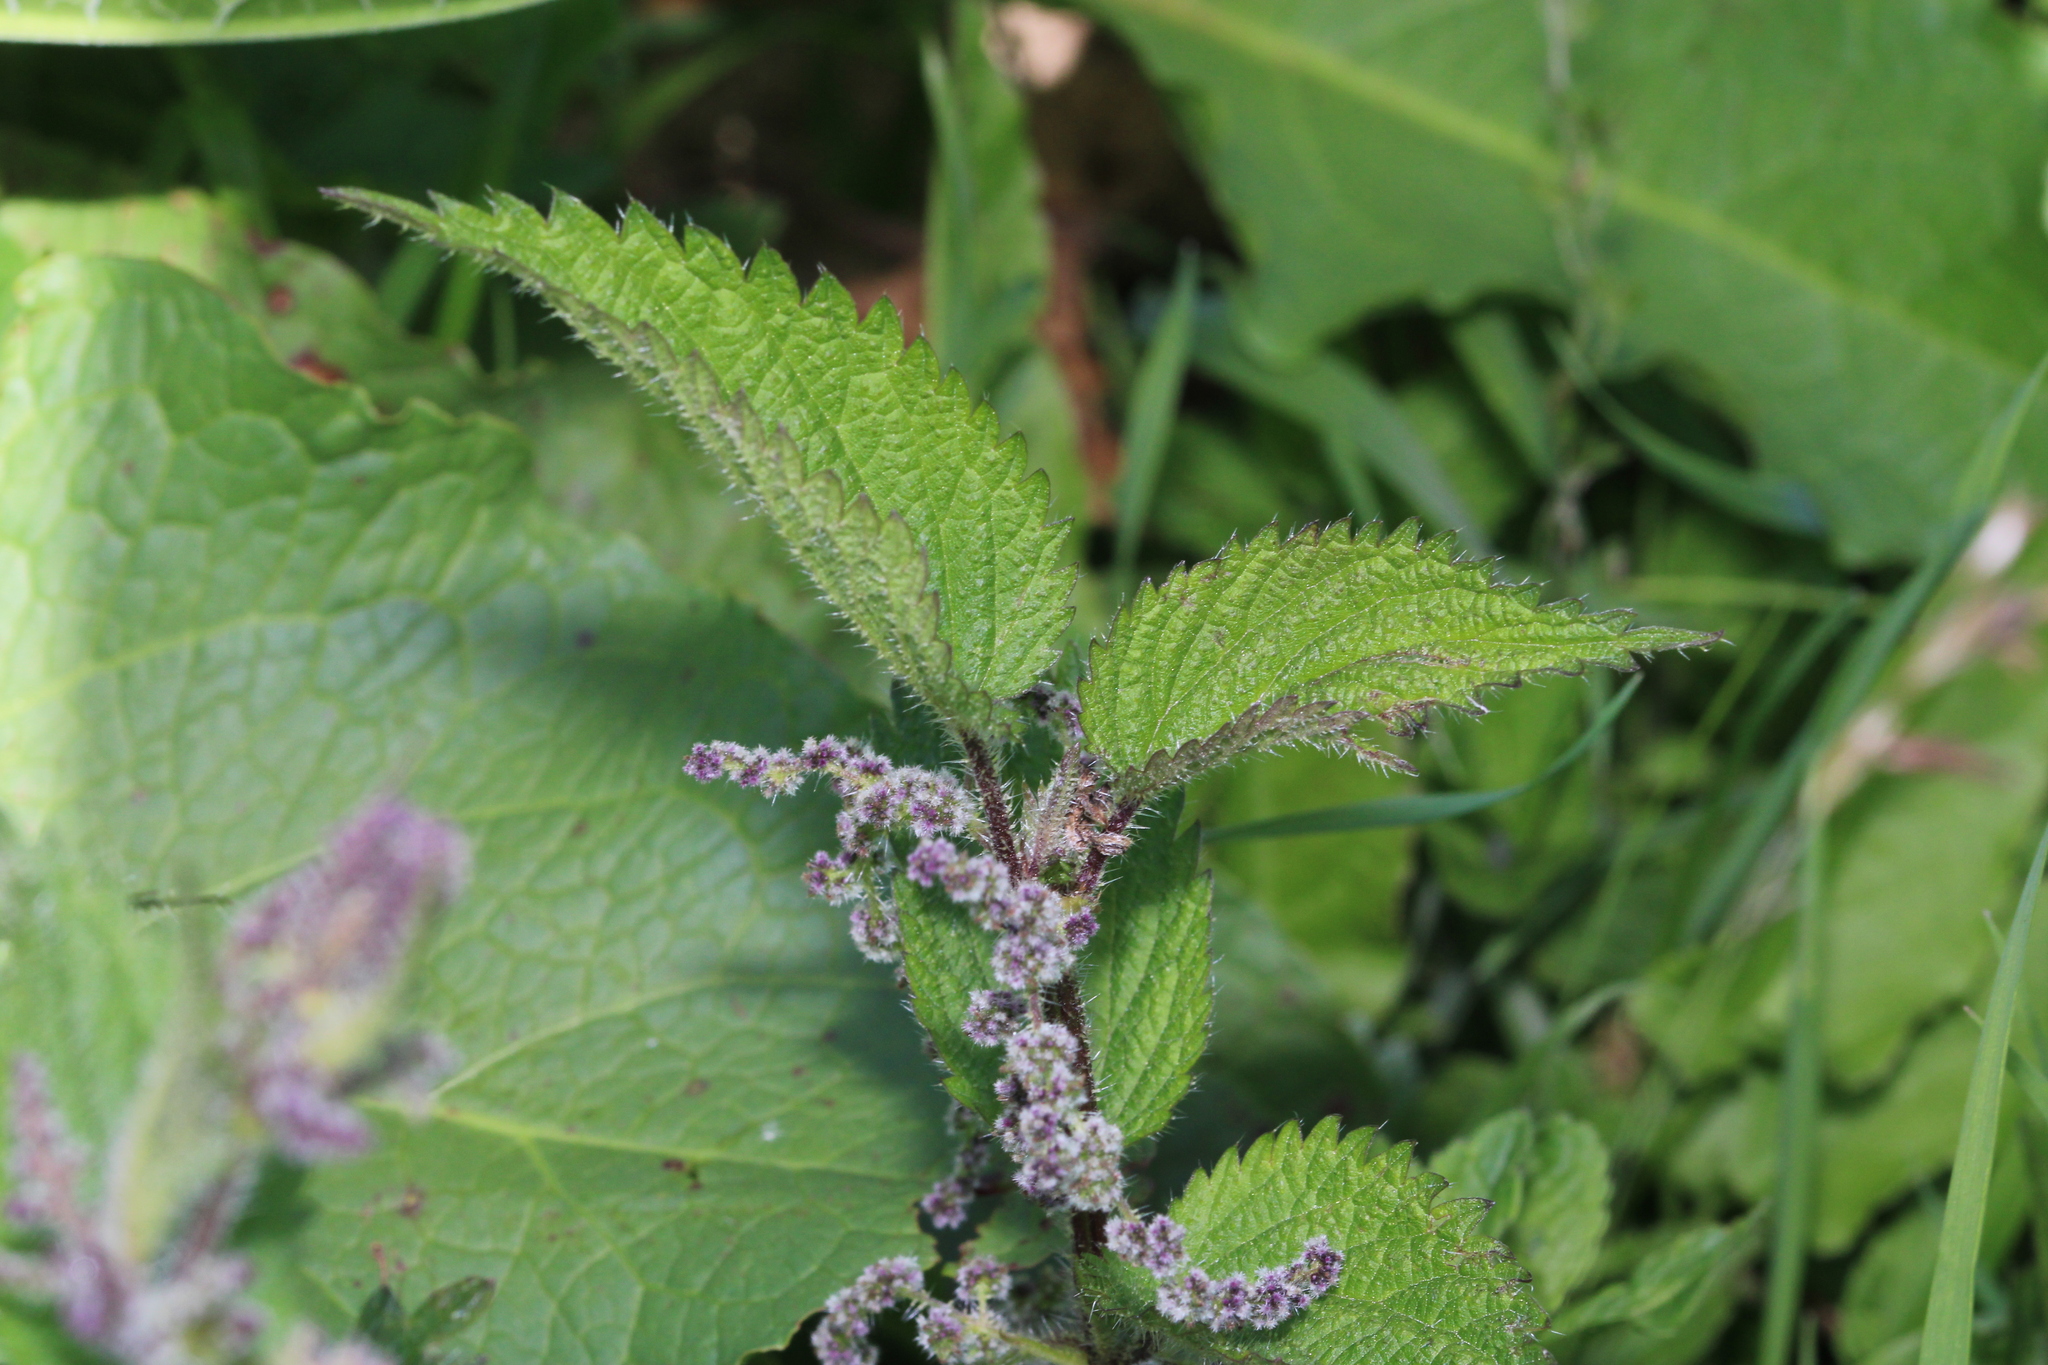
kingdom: Plantae
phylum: Tracheophyta
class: Magnoliopsida
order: Rosales
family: Urticaceae
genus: Urtica
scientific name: Urtica dioica
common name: Common nettle
